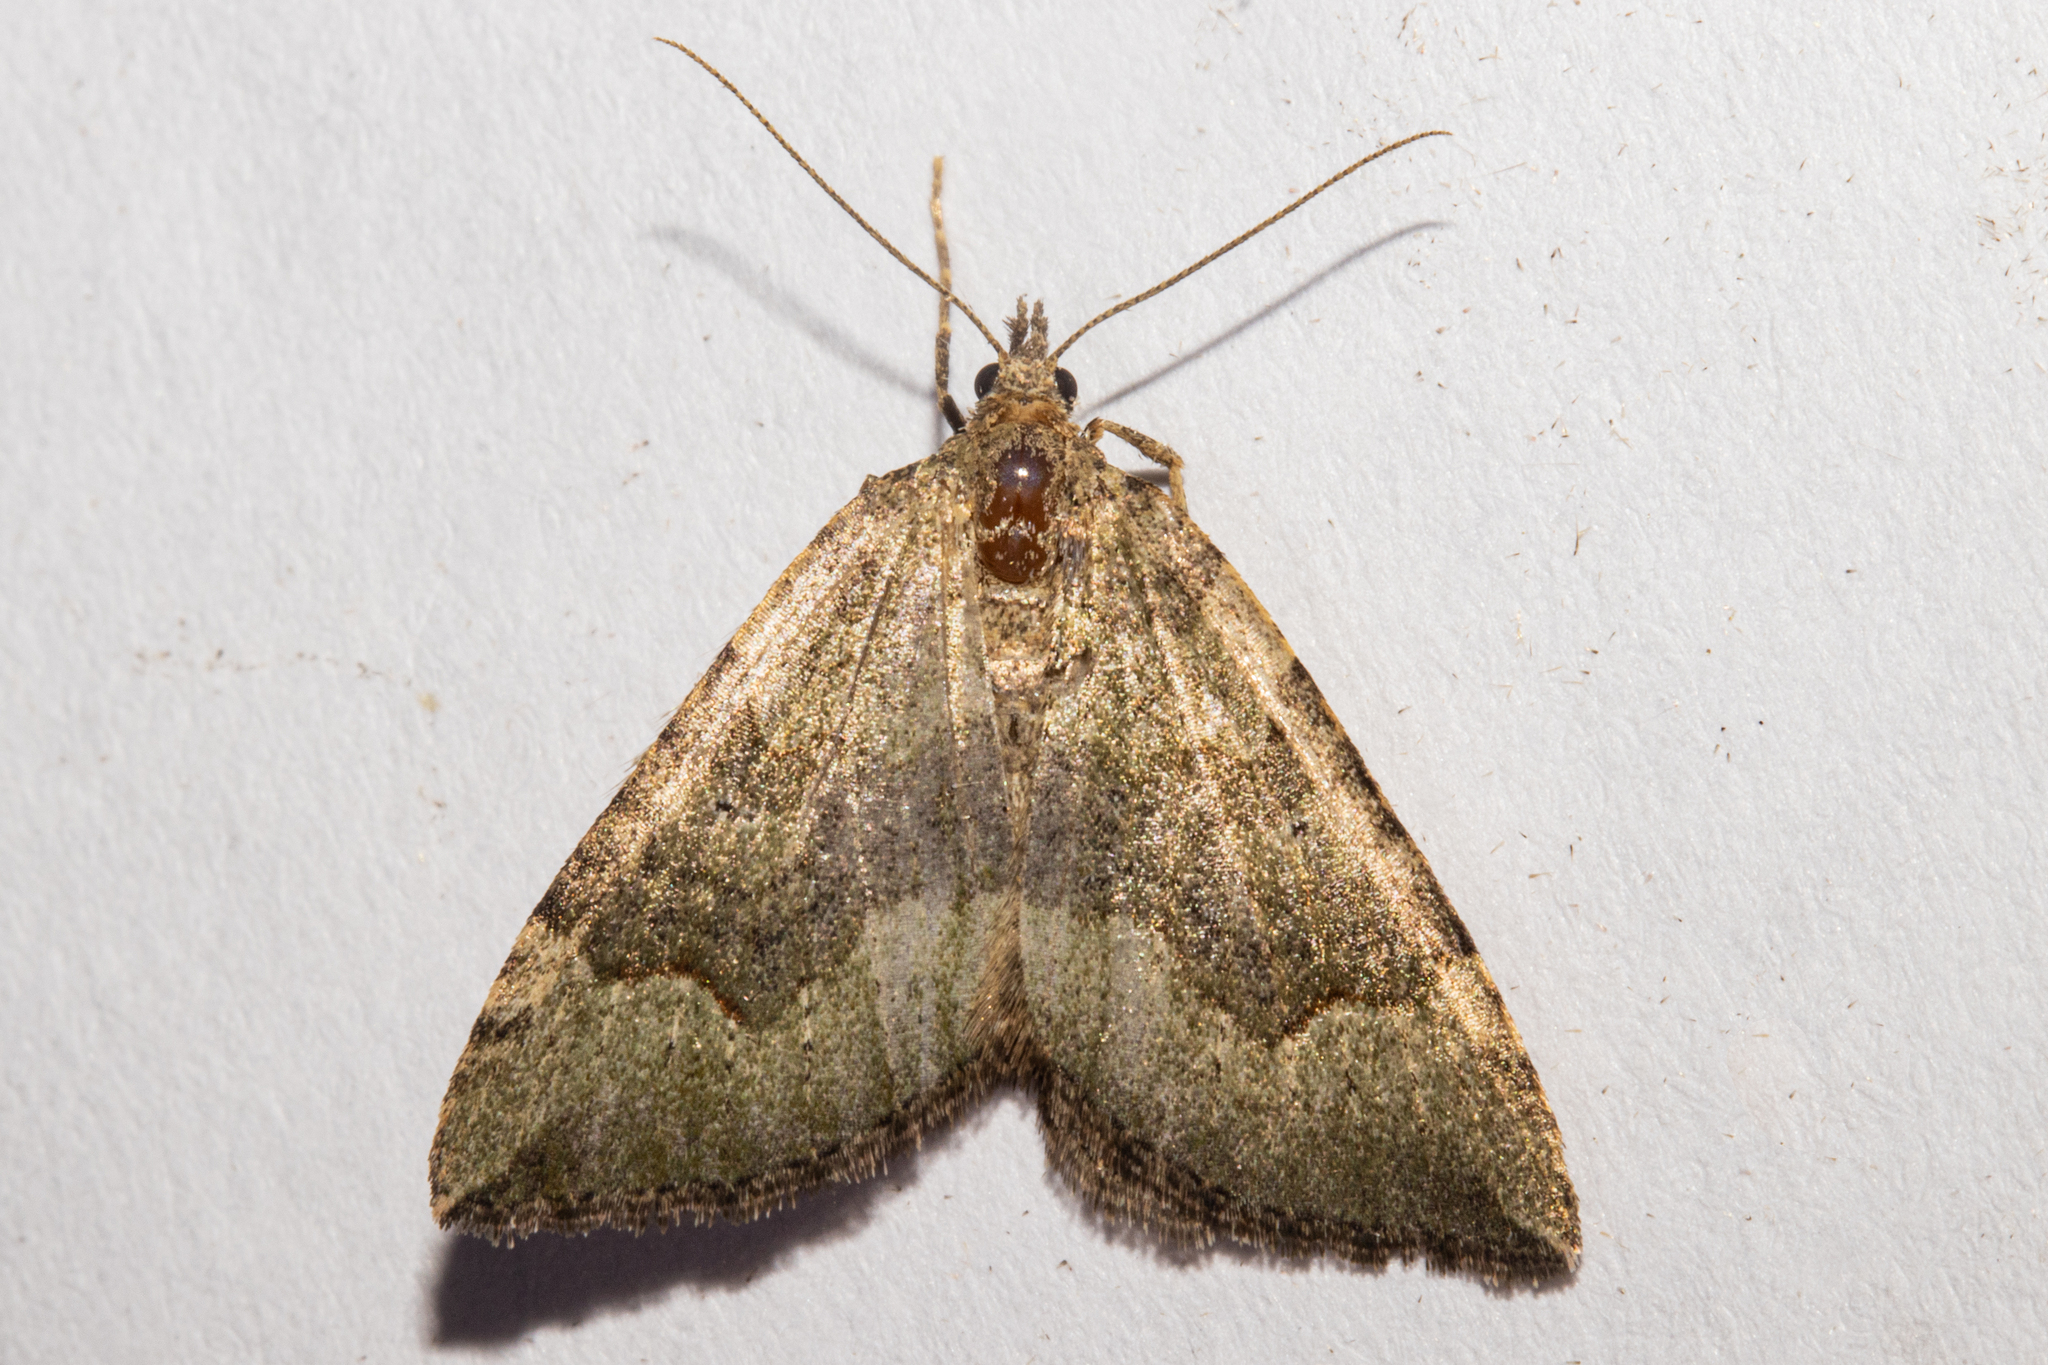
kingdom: Animalia
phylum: Arthropoda
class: Insecta
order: Lepidoptera
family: Geometridae
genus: Epyaxa
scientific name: Epyaxa rosearia
